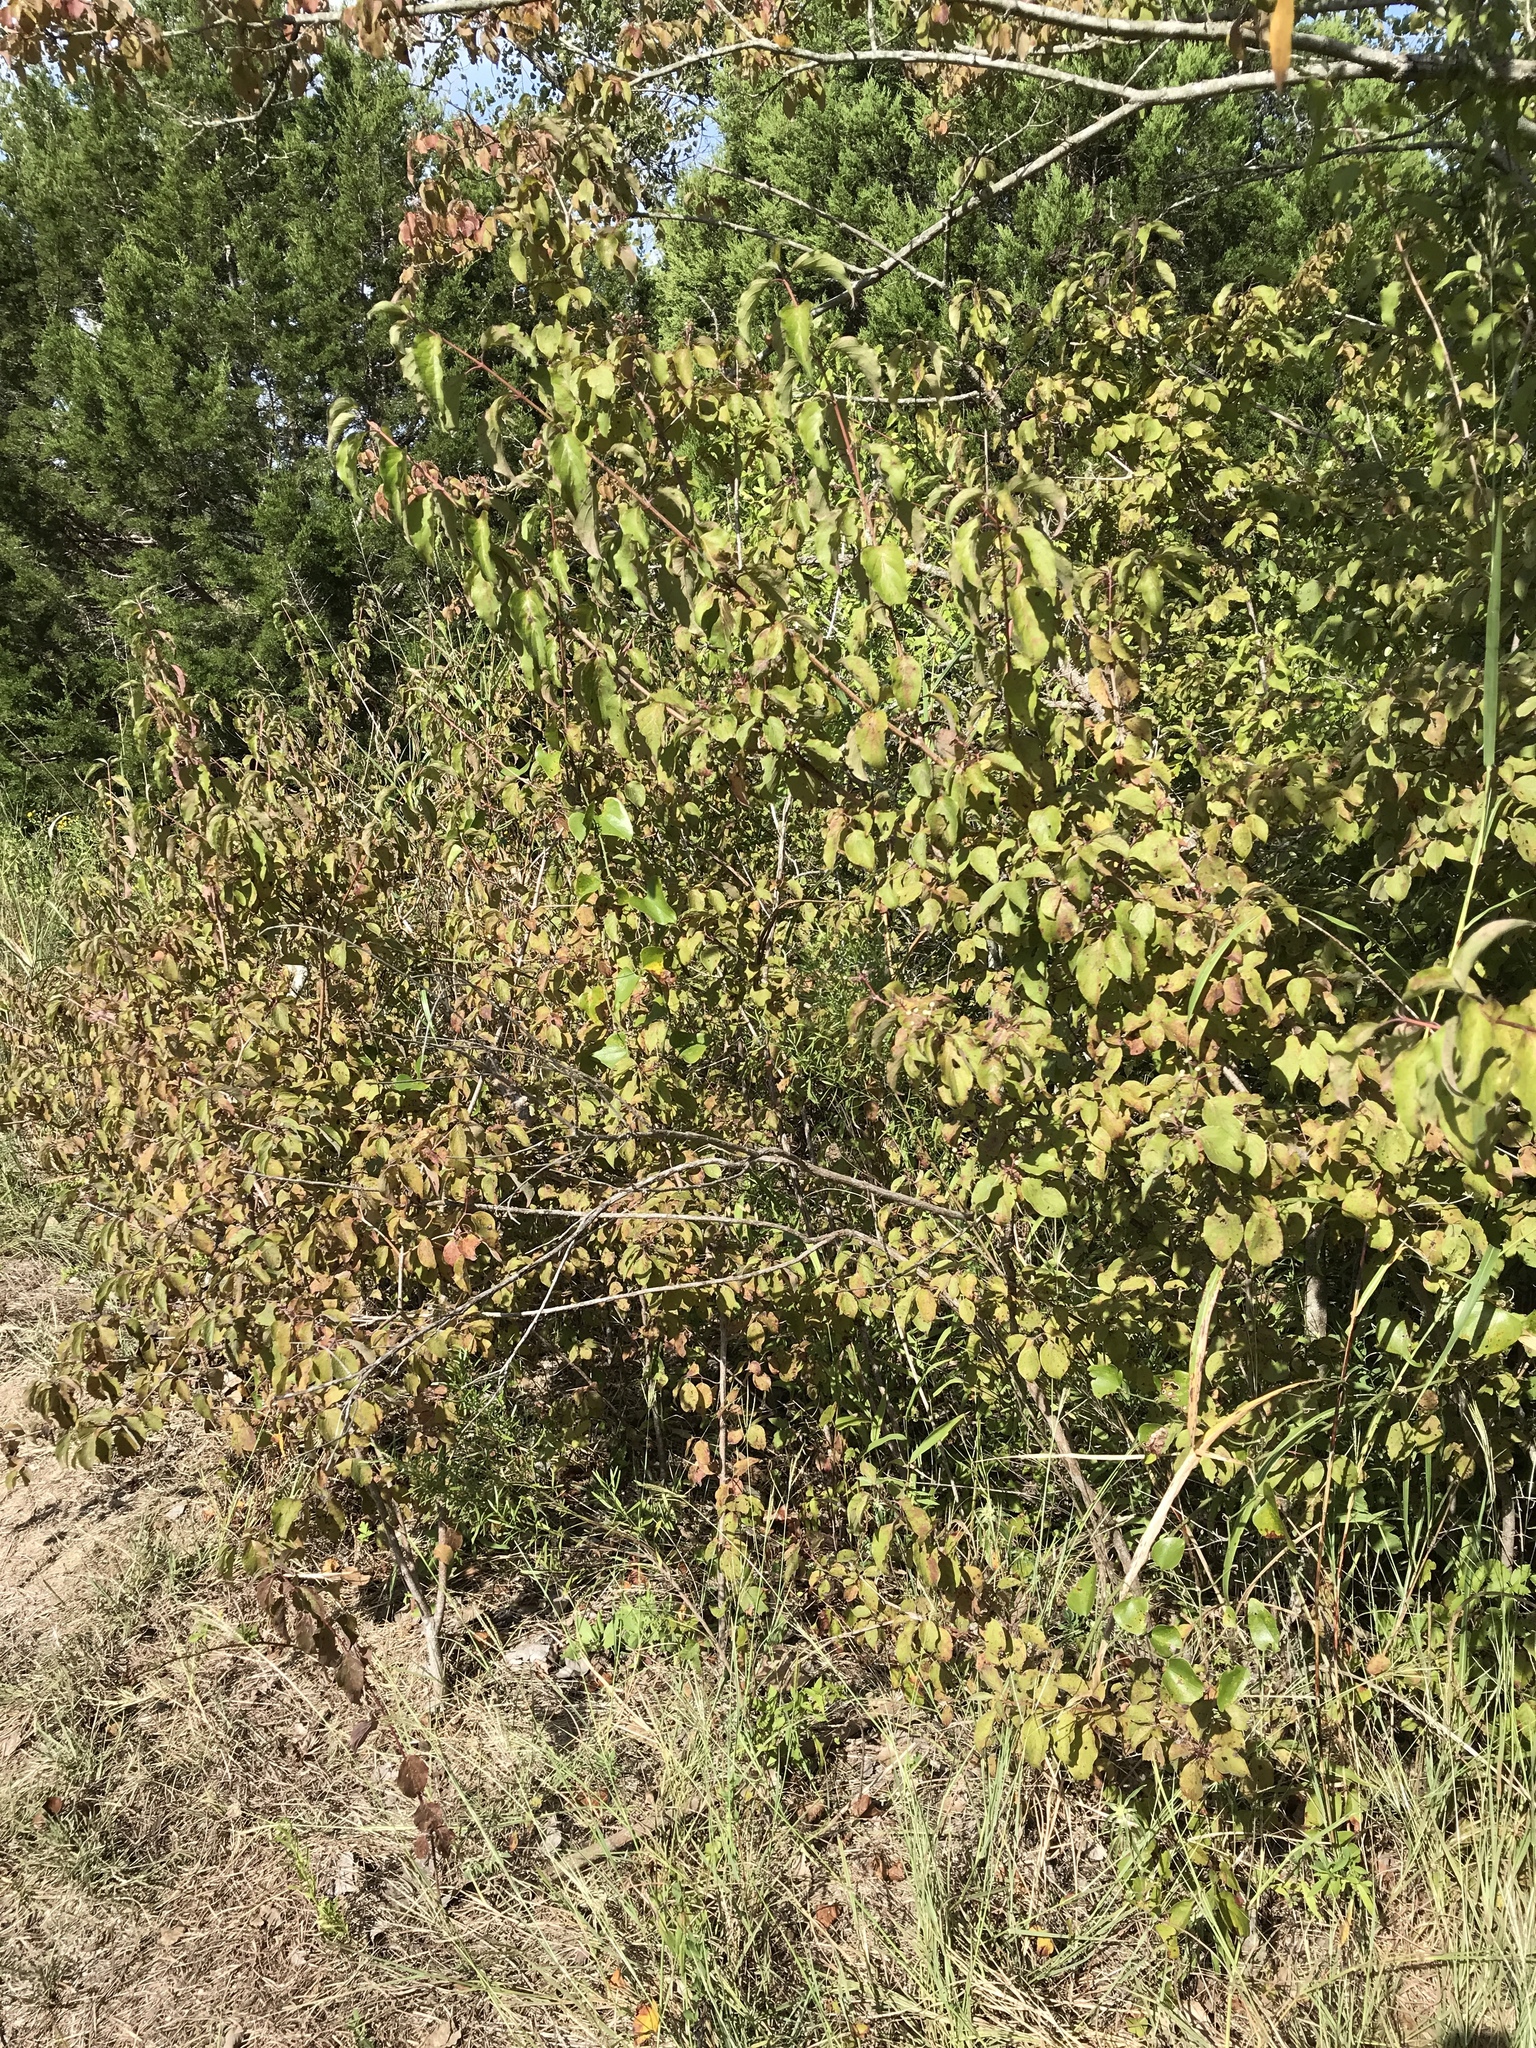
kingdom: Plantae
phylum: Tracheophyta
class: Magnoliopsida
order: Cornales
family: Cornaceae
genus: Cornus
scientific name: Cornus drummondii
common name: Rough-leaf dogwood
